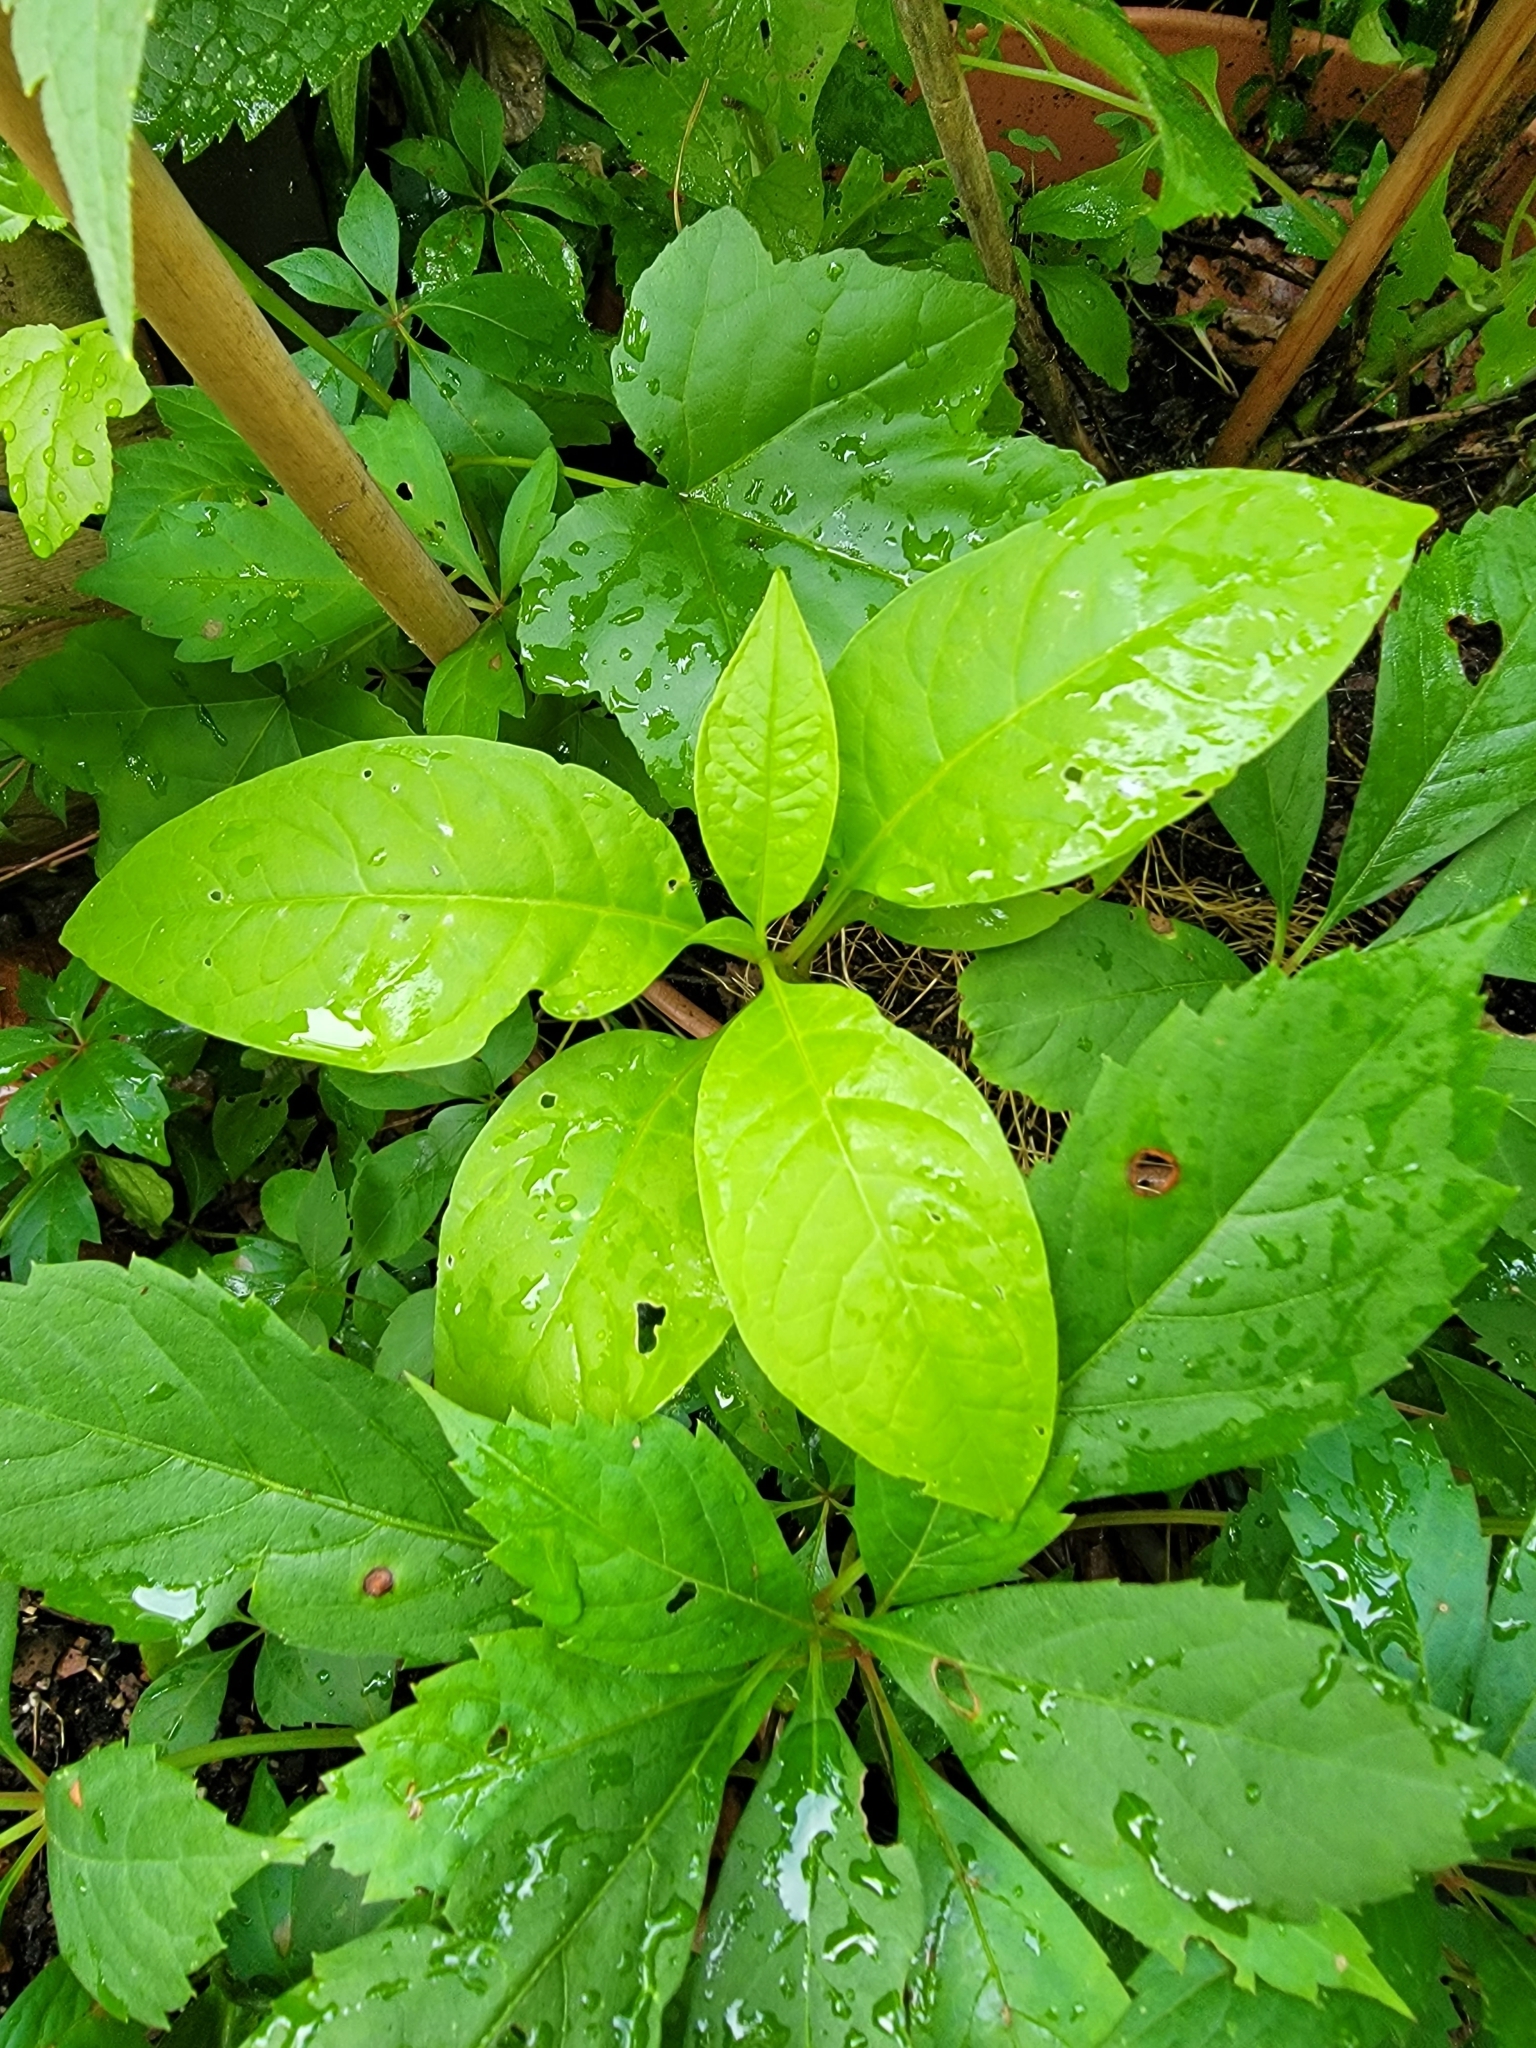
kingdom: Plantae
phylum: Tracheophyta
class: Magnoliopsida
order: Caryophyllales
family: Phytolaccaceae
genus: Phytolacca
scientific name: Phytolacca americana
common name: American pokeweed
